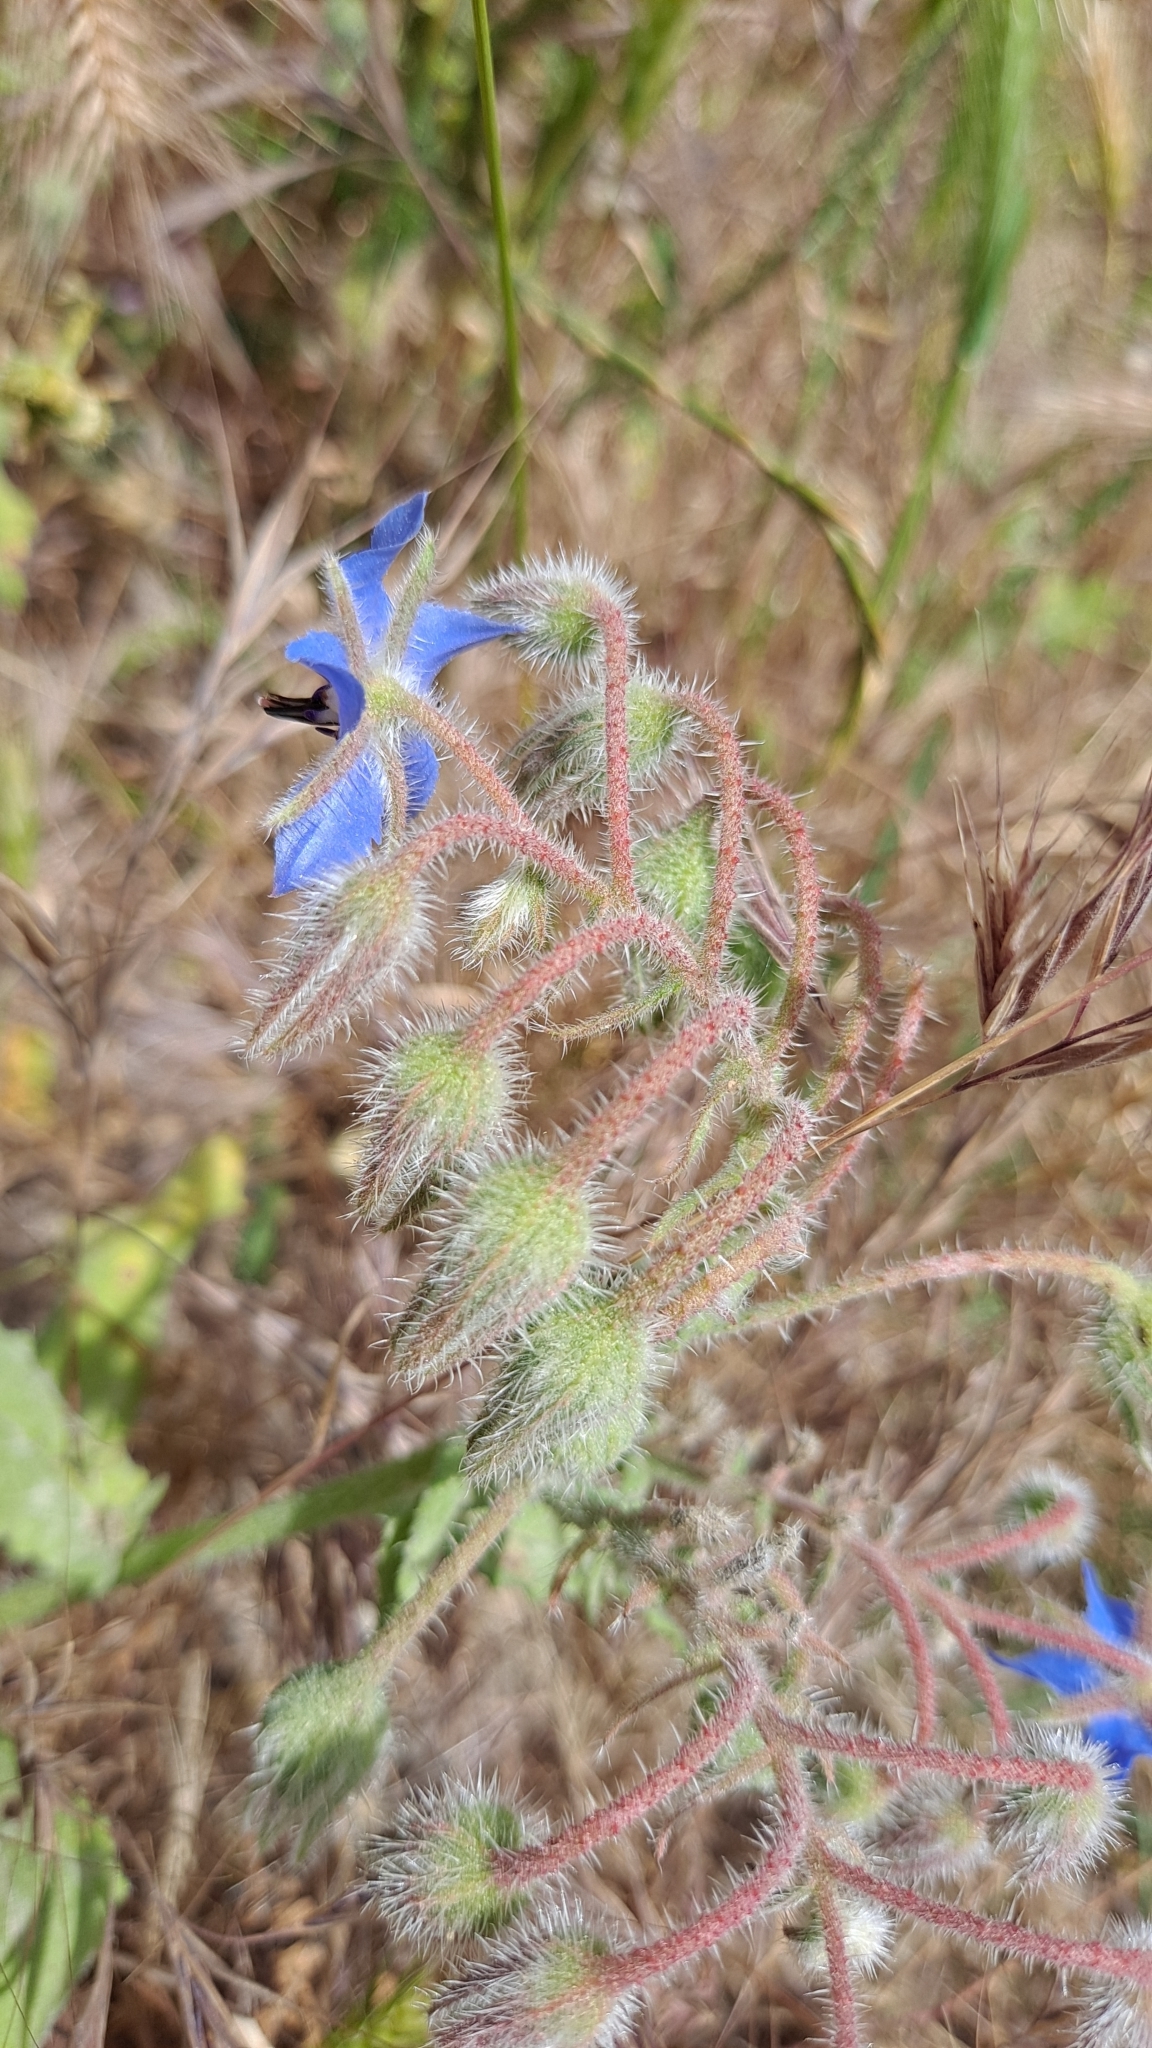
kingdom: Plantae
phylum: Tracheophyta
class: Magnoliopsida
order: Boraginales
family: Boraginaceae
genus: Borago
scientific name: Borago officinalis
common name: Borage
